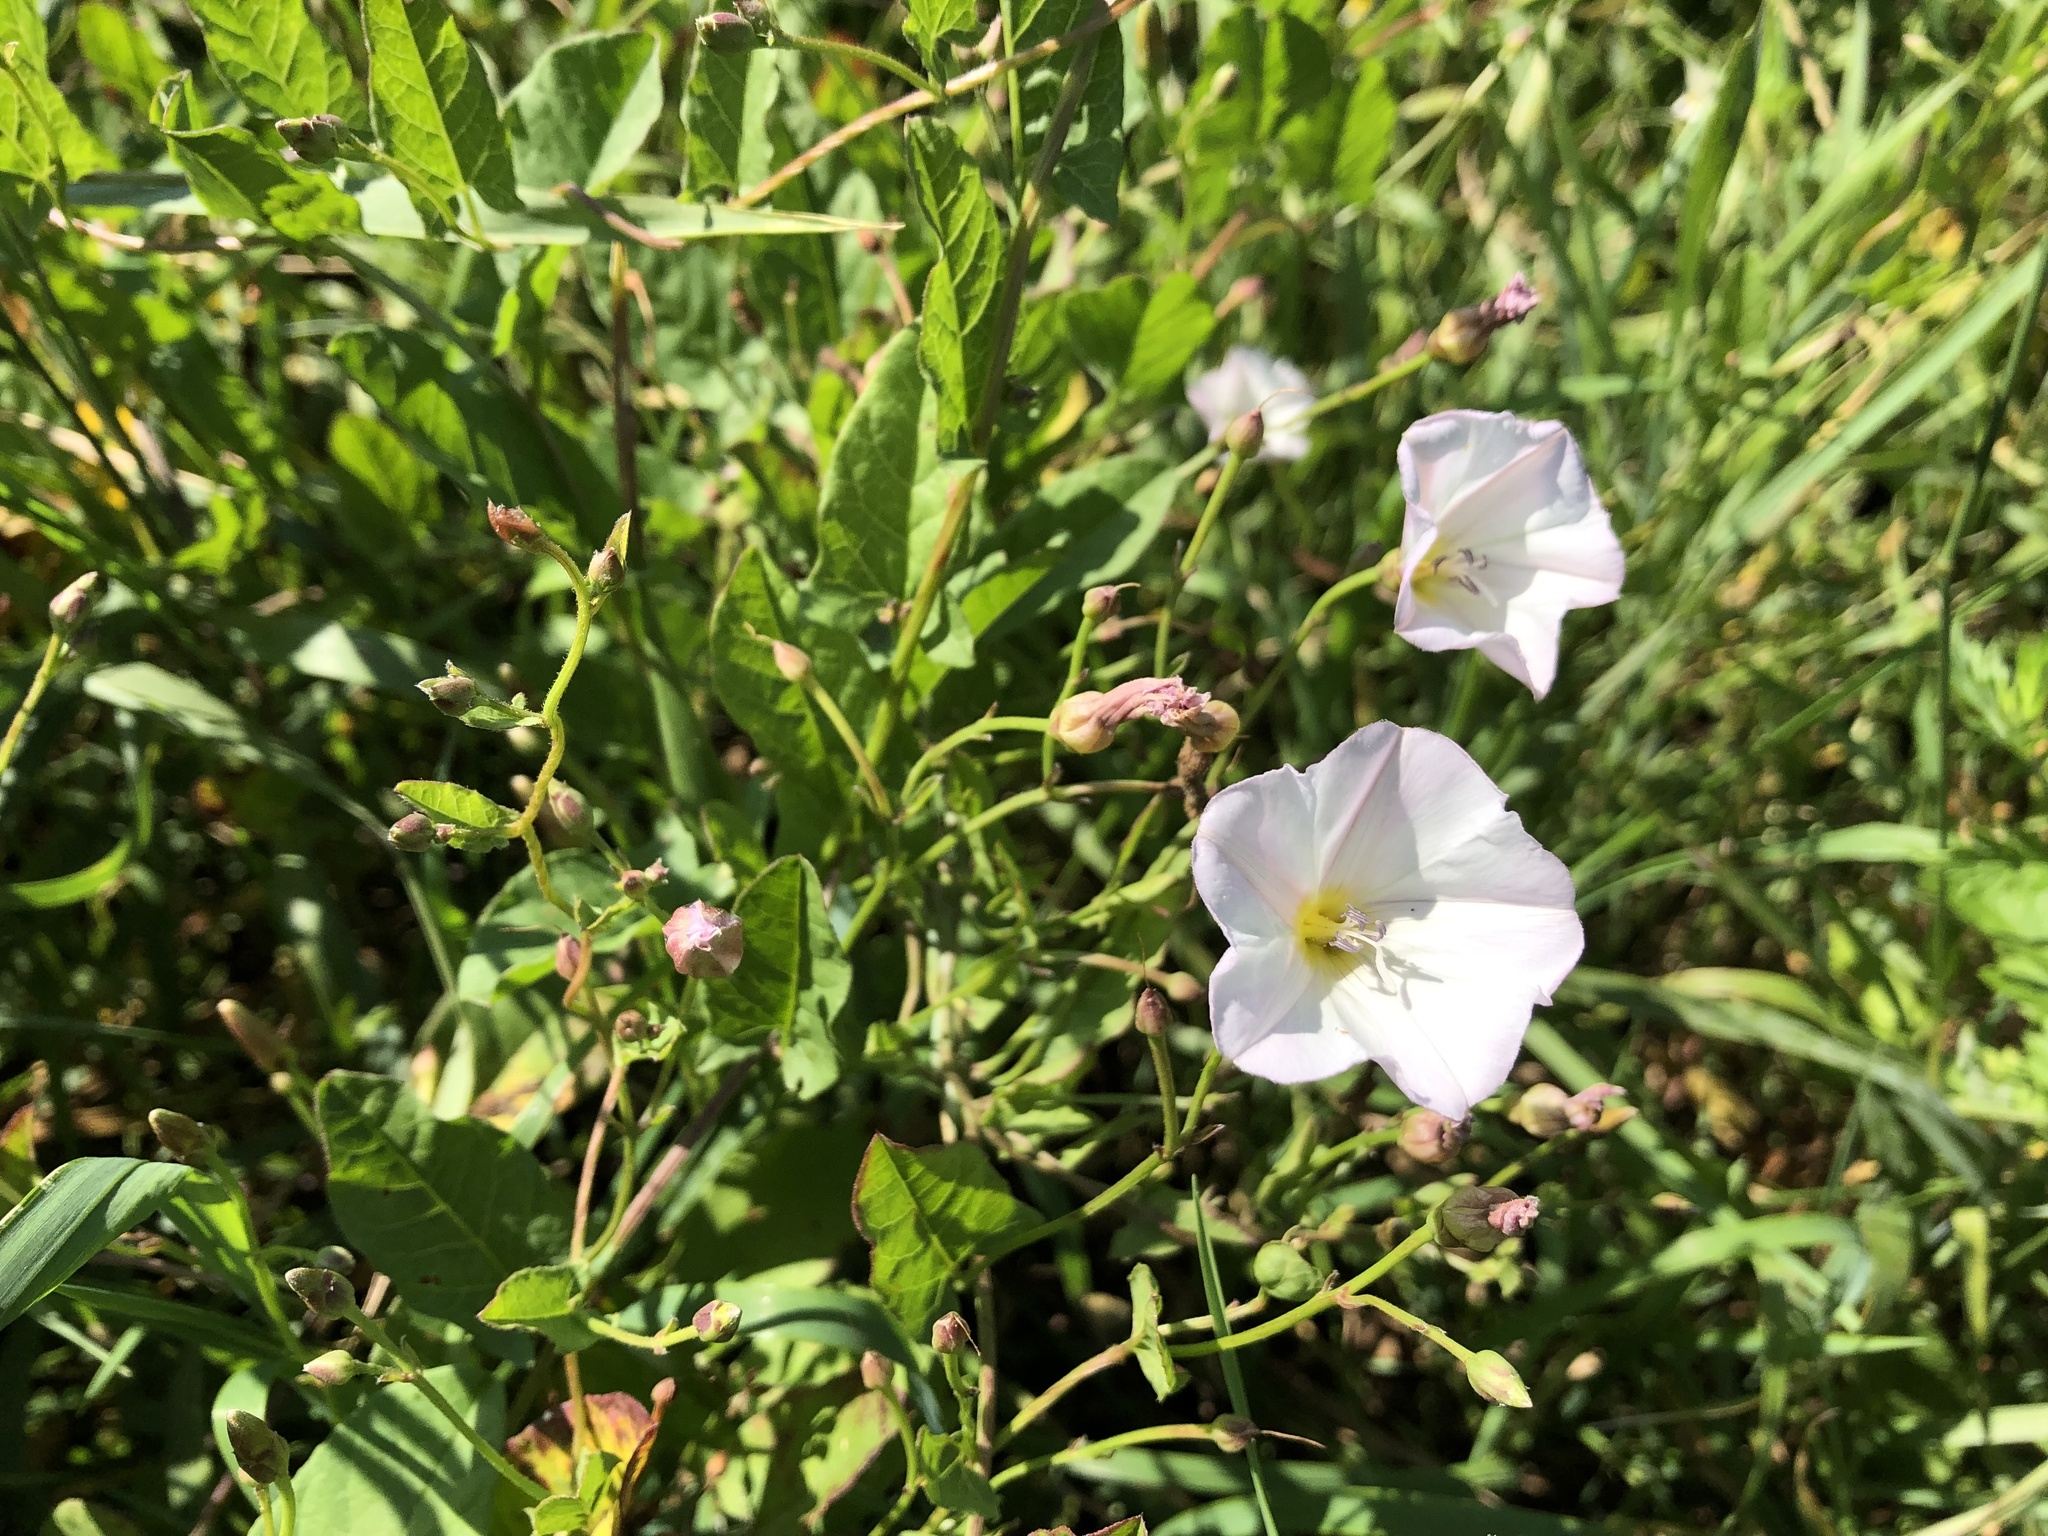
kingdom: Plantae
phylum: Tracheophyta
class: Magnoliopsida
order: Solanales
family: Convolvulaceae
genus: Convolvulus
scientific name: Convolvulus arvensis
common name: Field bindweed
